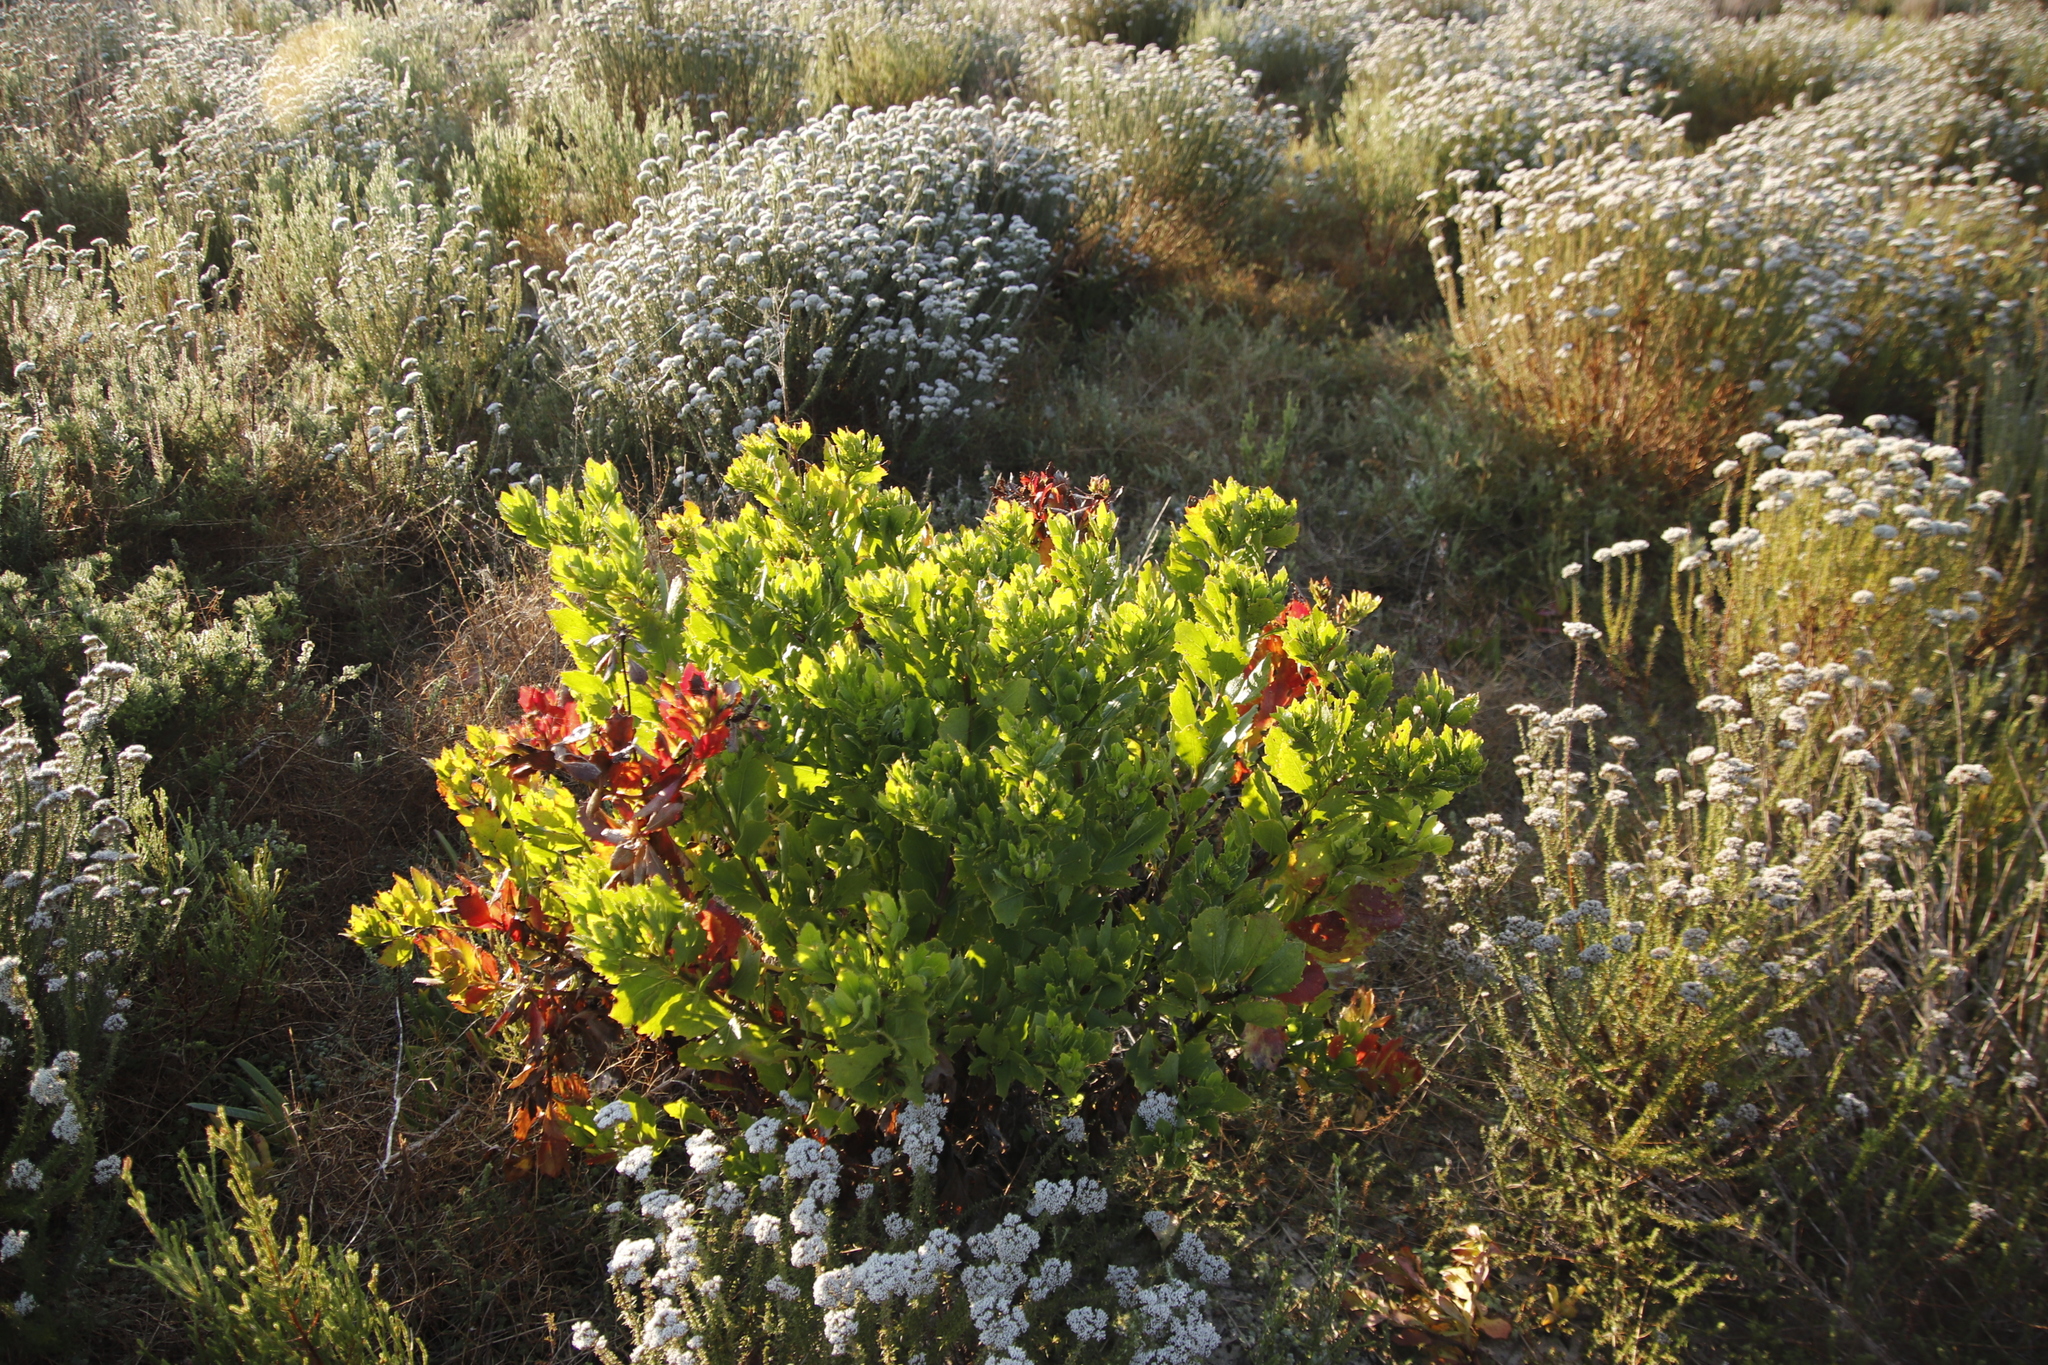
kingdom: Plantae
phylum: Tracheophyta
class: Magnoliopsida
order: Asterales
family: Asteraceae
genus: Osteospermum
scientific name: Osteospermum moniliferum
